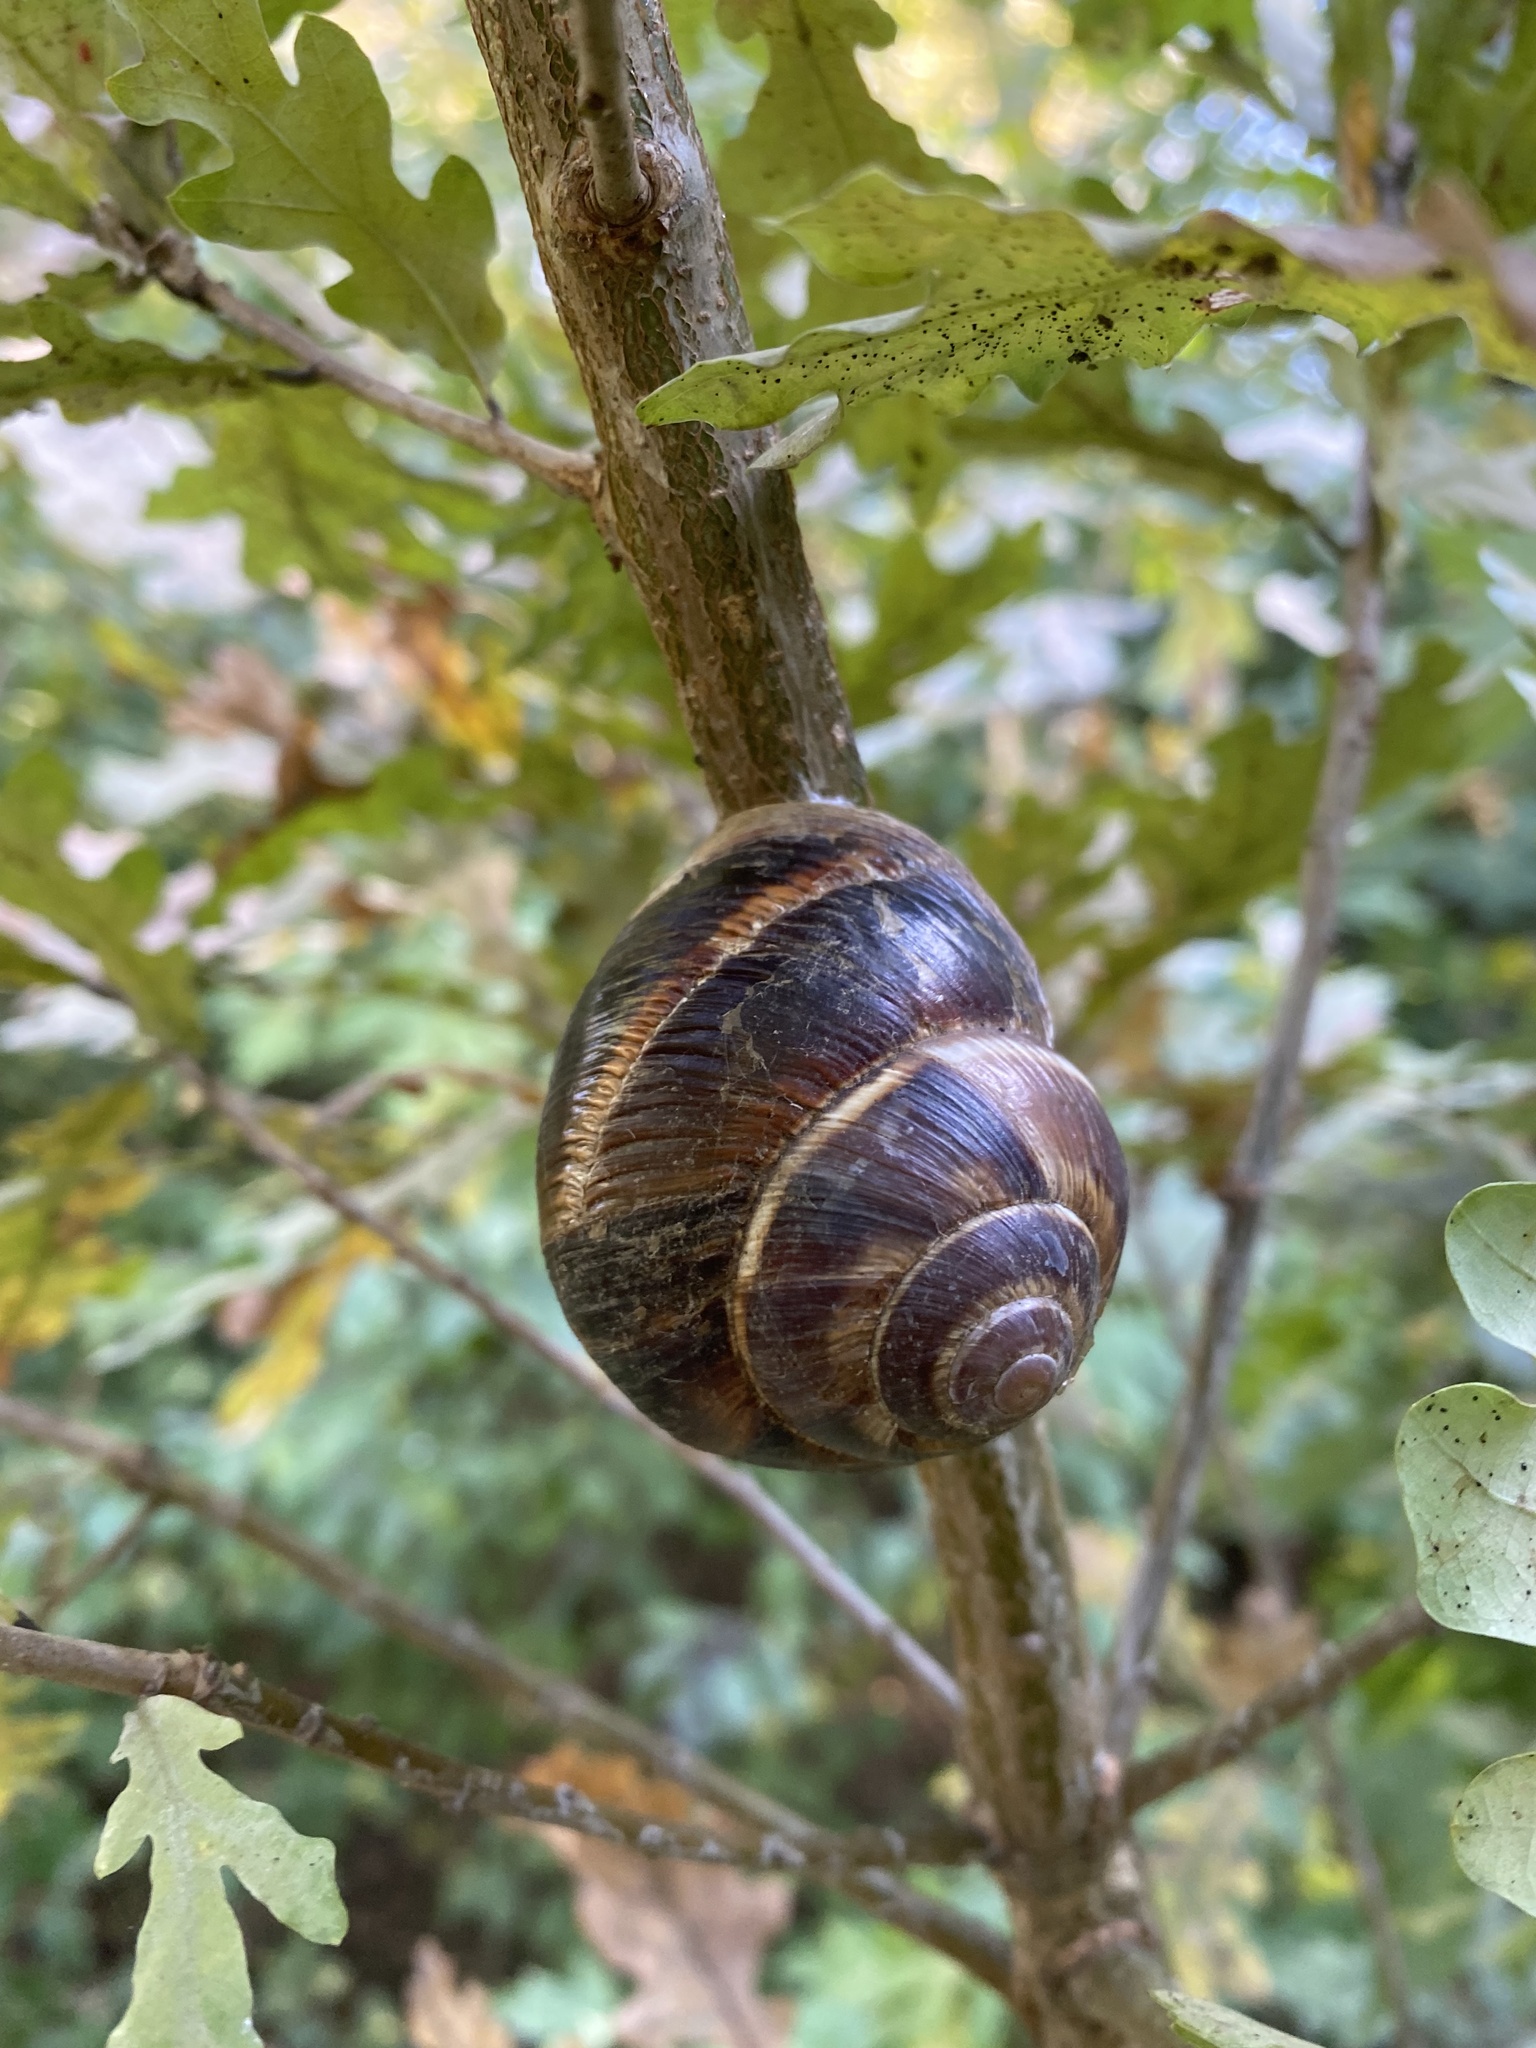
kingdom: Animalia
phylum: Mollusca
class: Gastropoda
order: Stylommatophora
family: Helicidae
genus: Helix
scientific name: Helix lucorum
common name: Turkish snail
